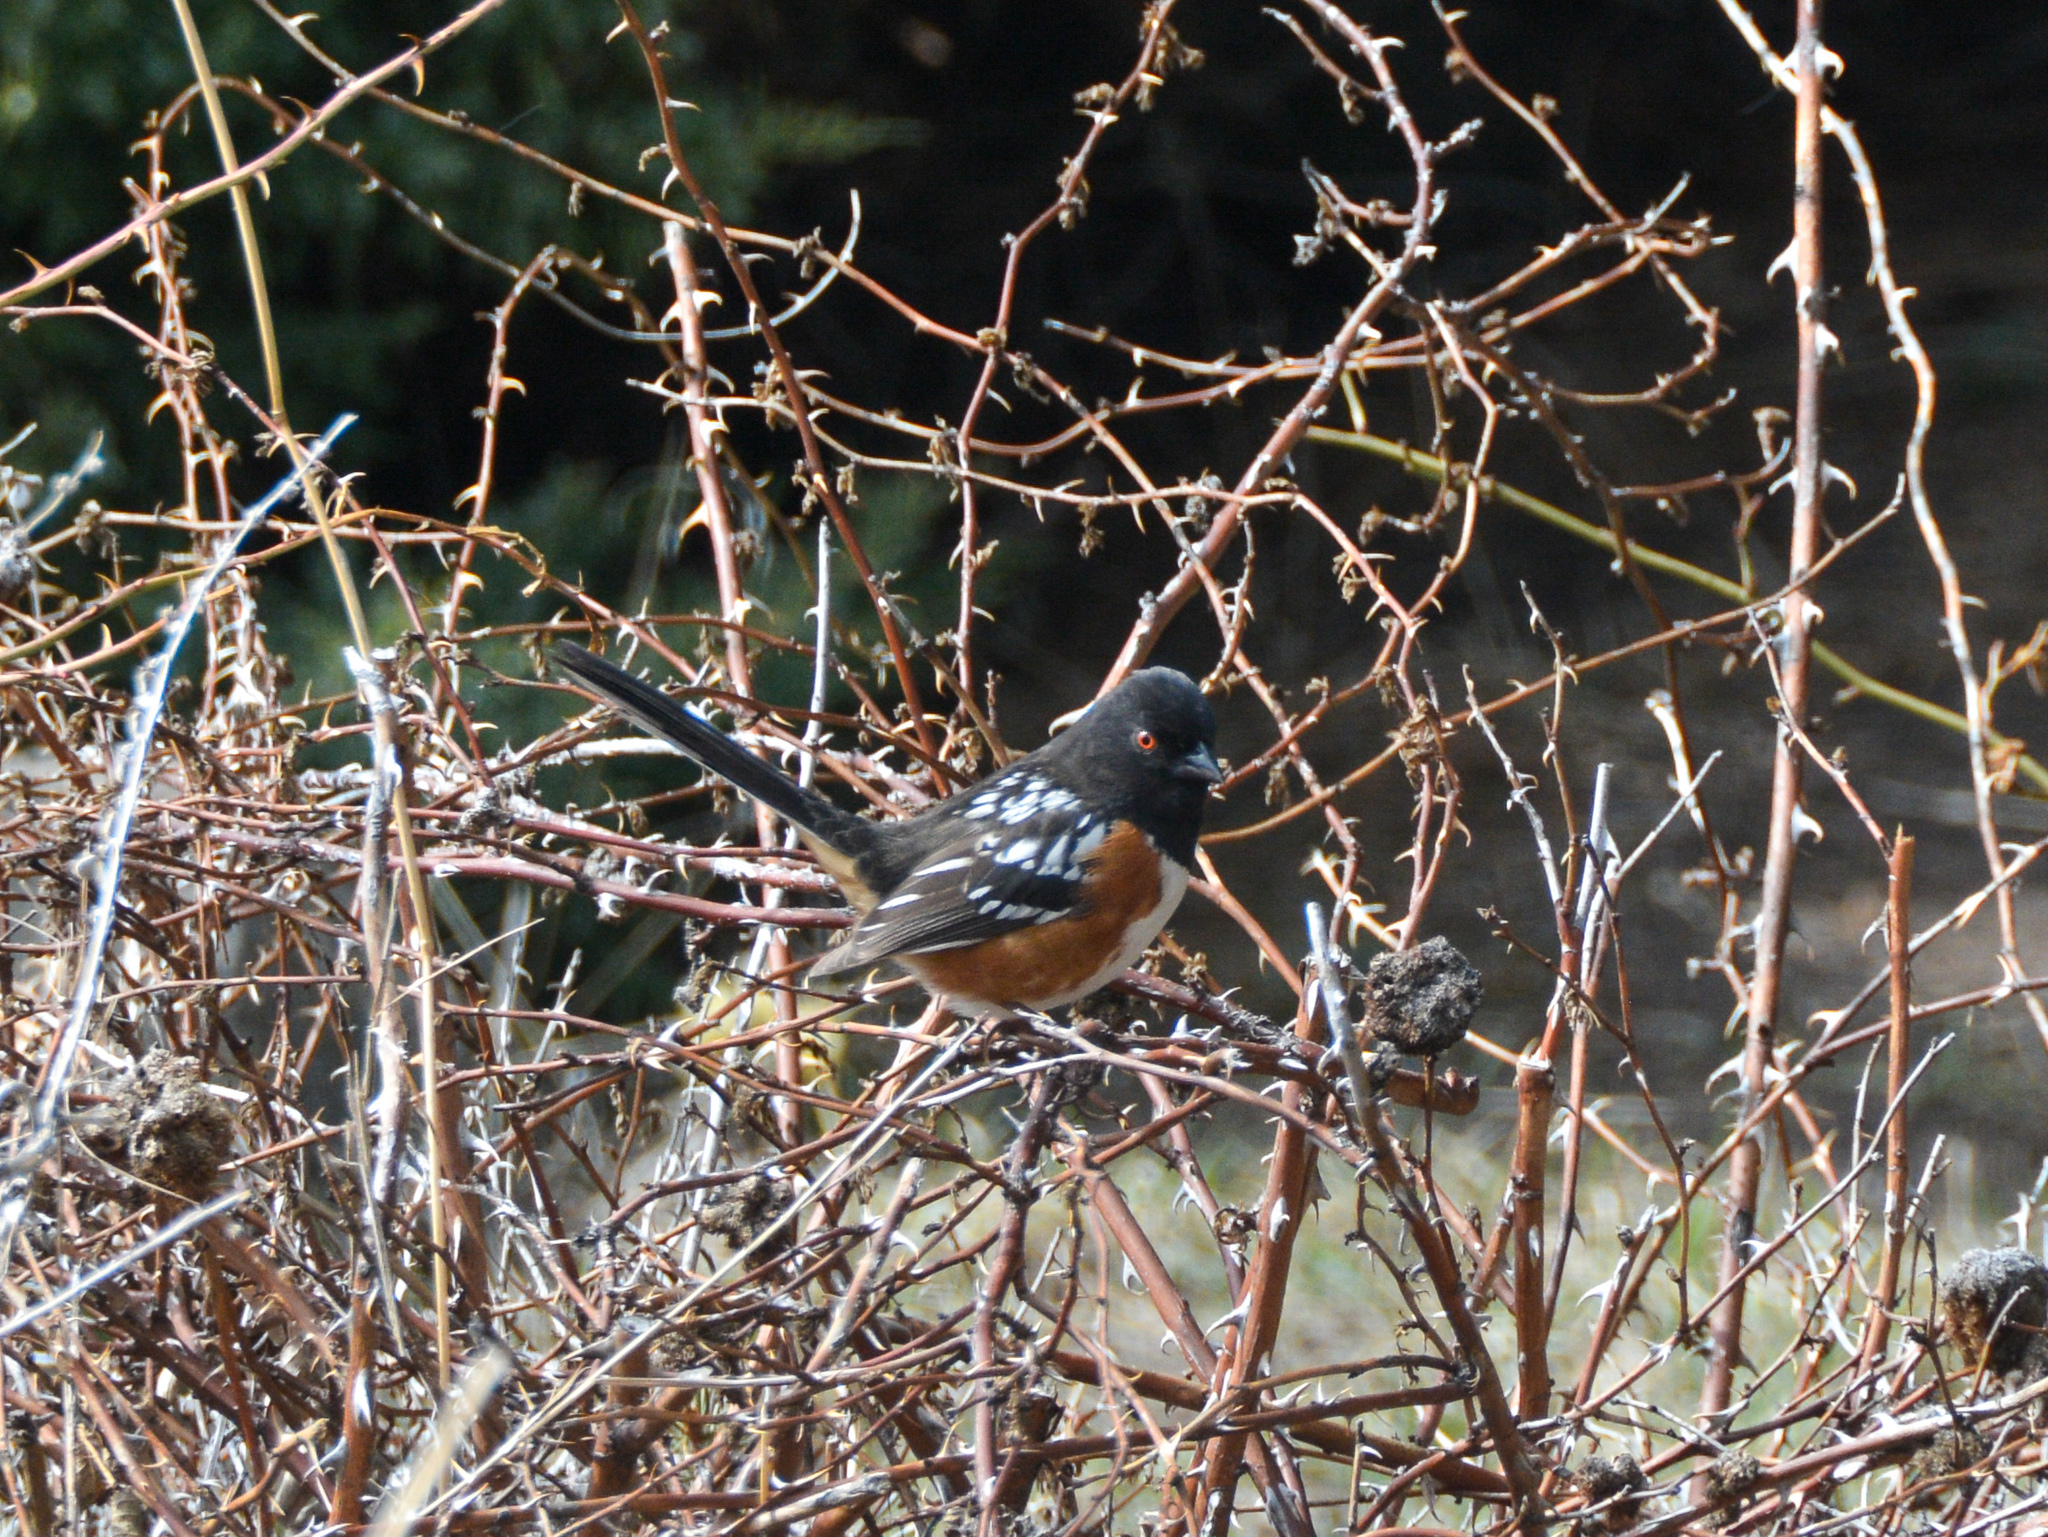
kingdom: Animalia
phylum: Chordata
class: Aves
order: Passeriformes
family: Passerellidae
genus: Pipilo
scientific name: Pipilo maculatus
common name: Spotted towhee
